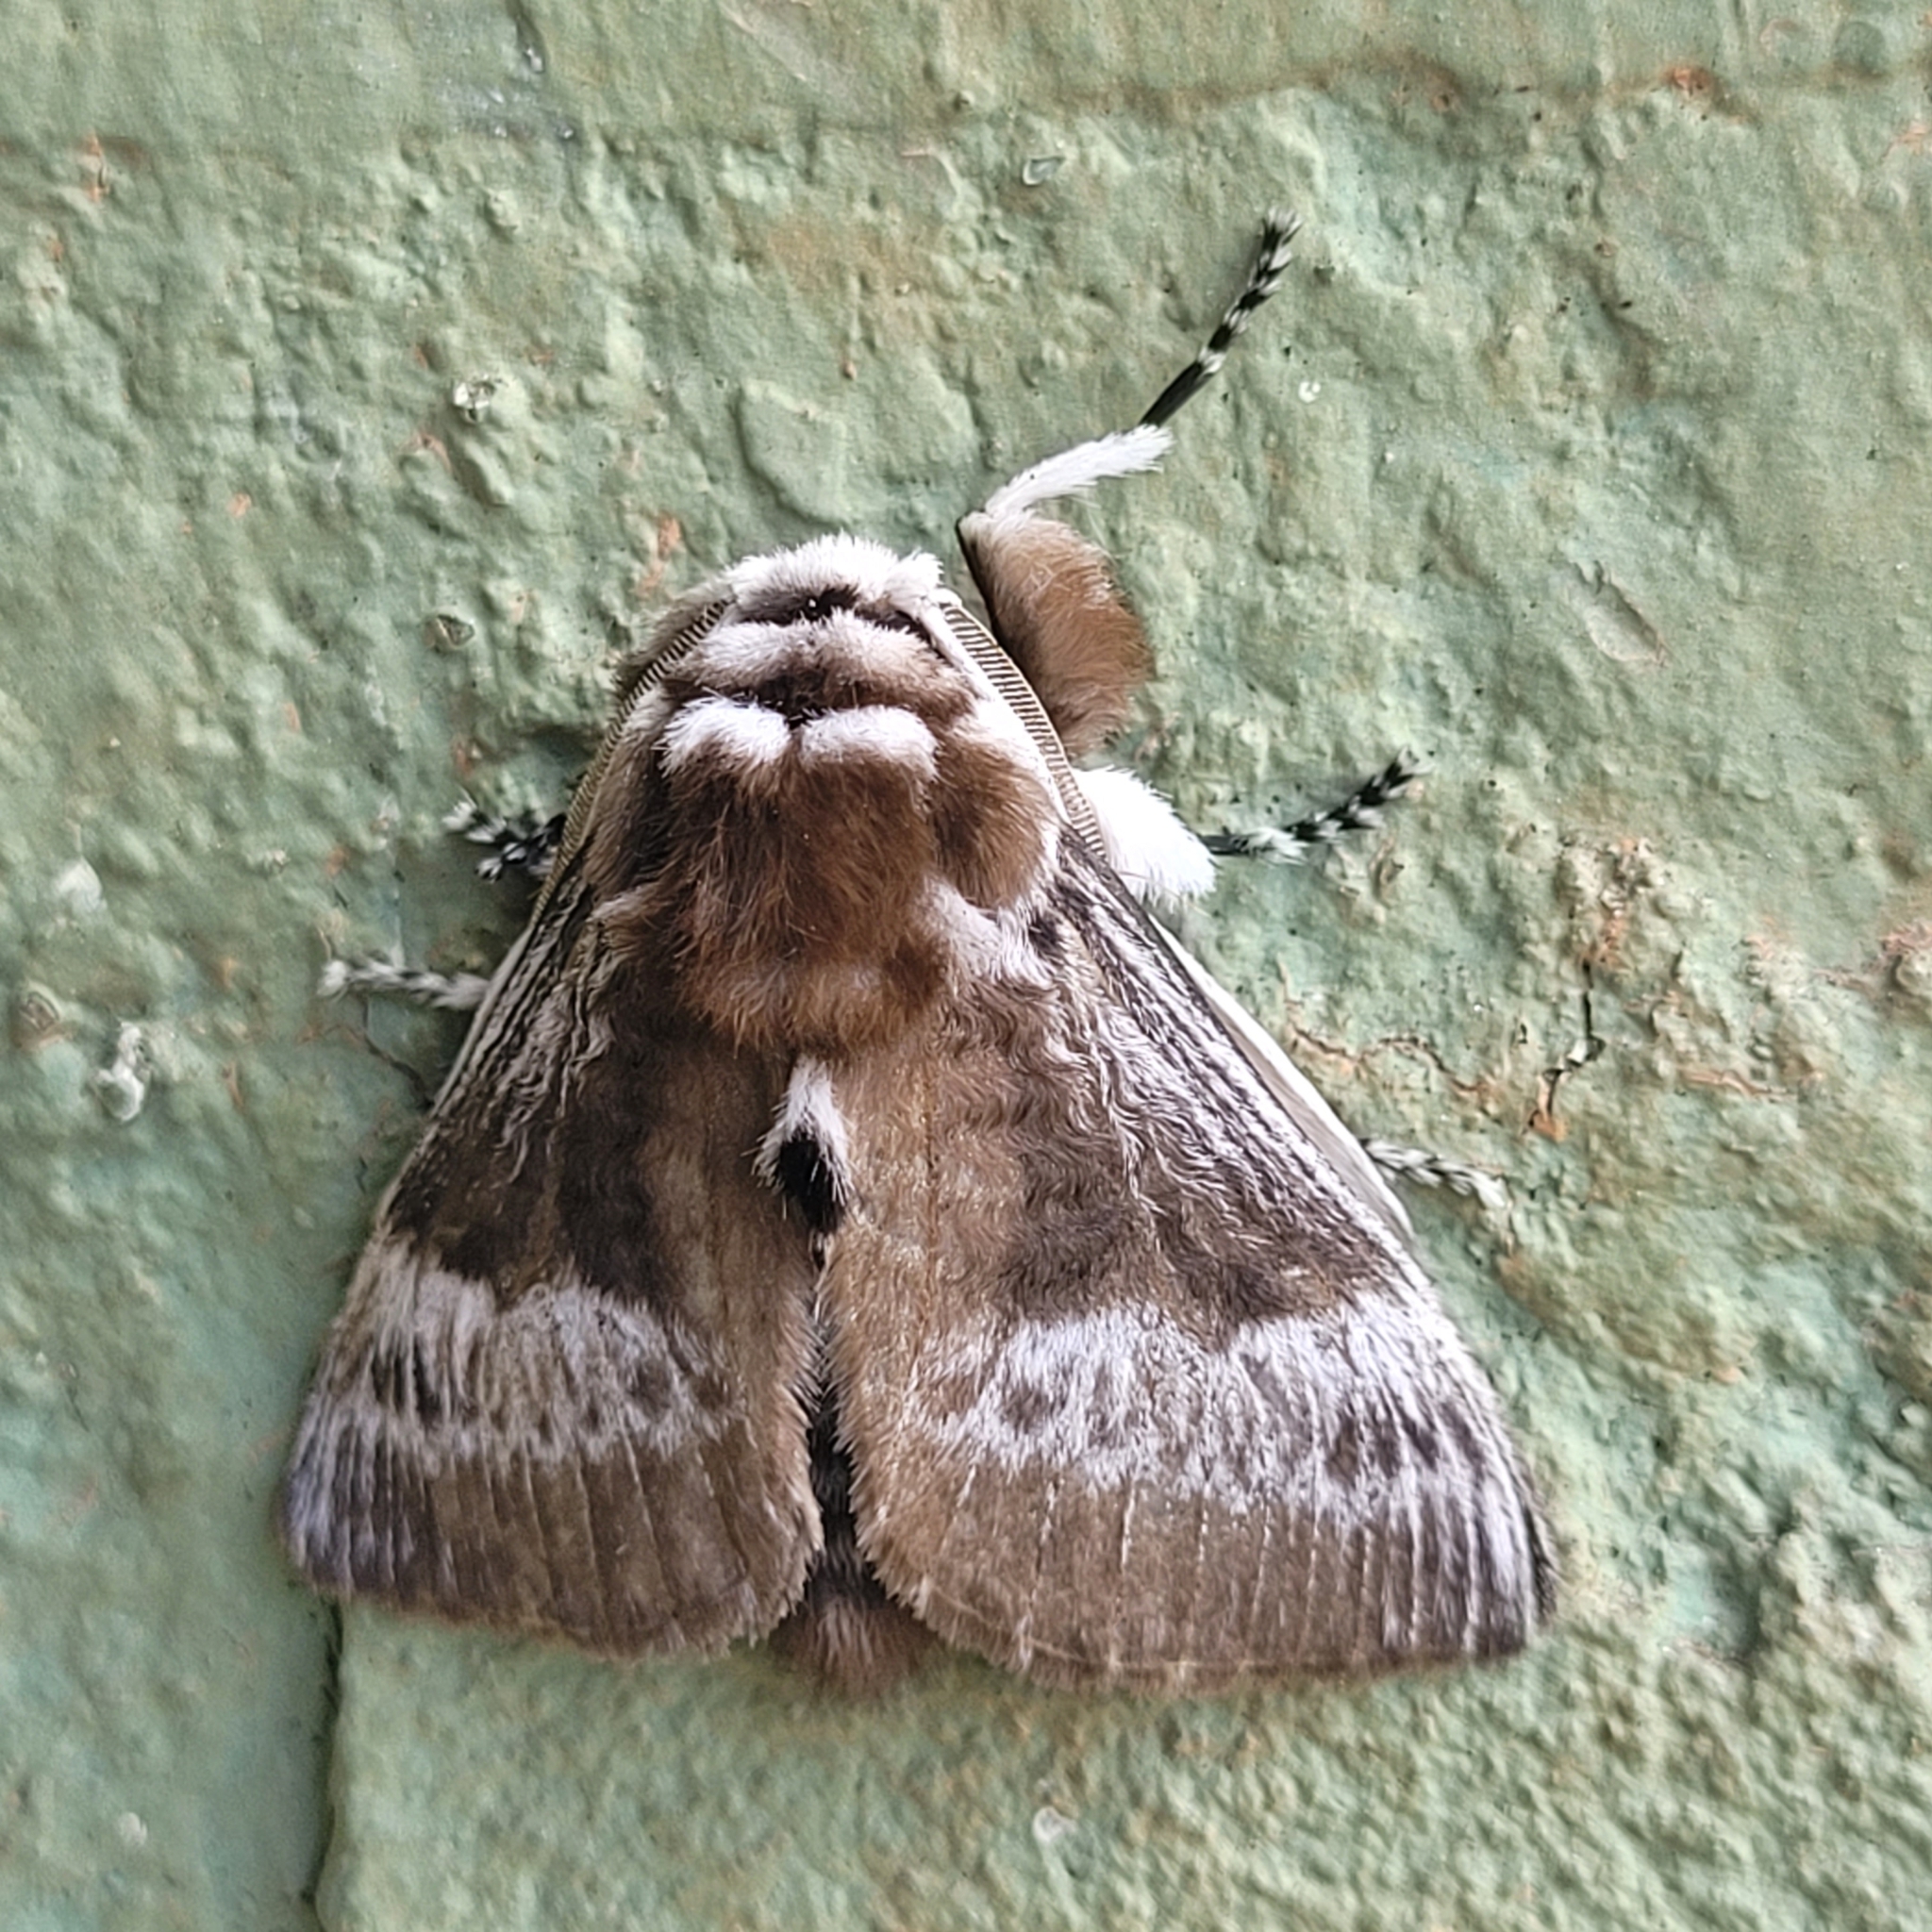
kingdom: Animalia
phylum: Arthropoda
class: Insecta
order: Lepidoptera
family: Megalopygidae
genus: Podalia
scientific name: Podalia walkeri
